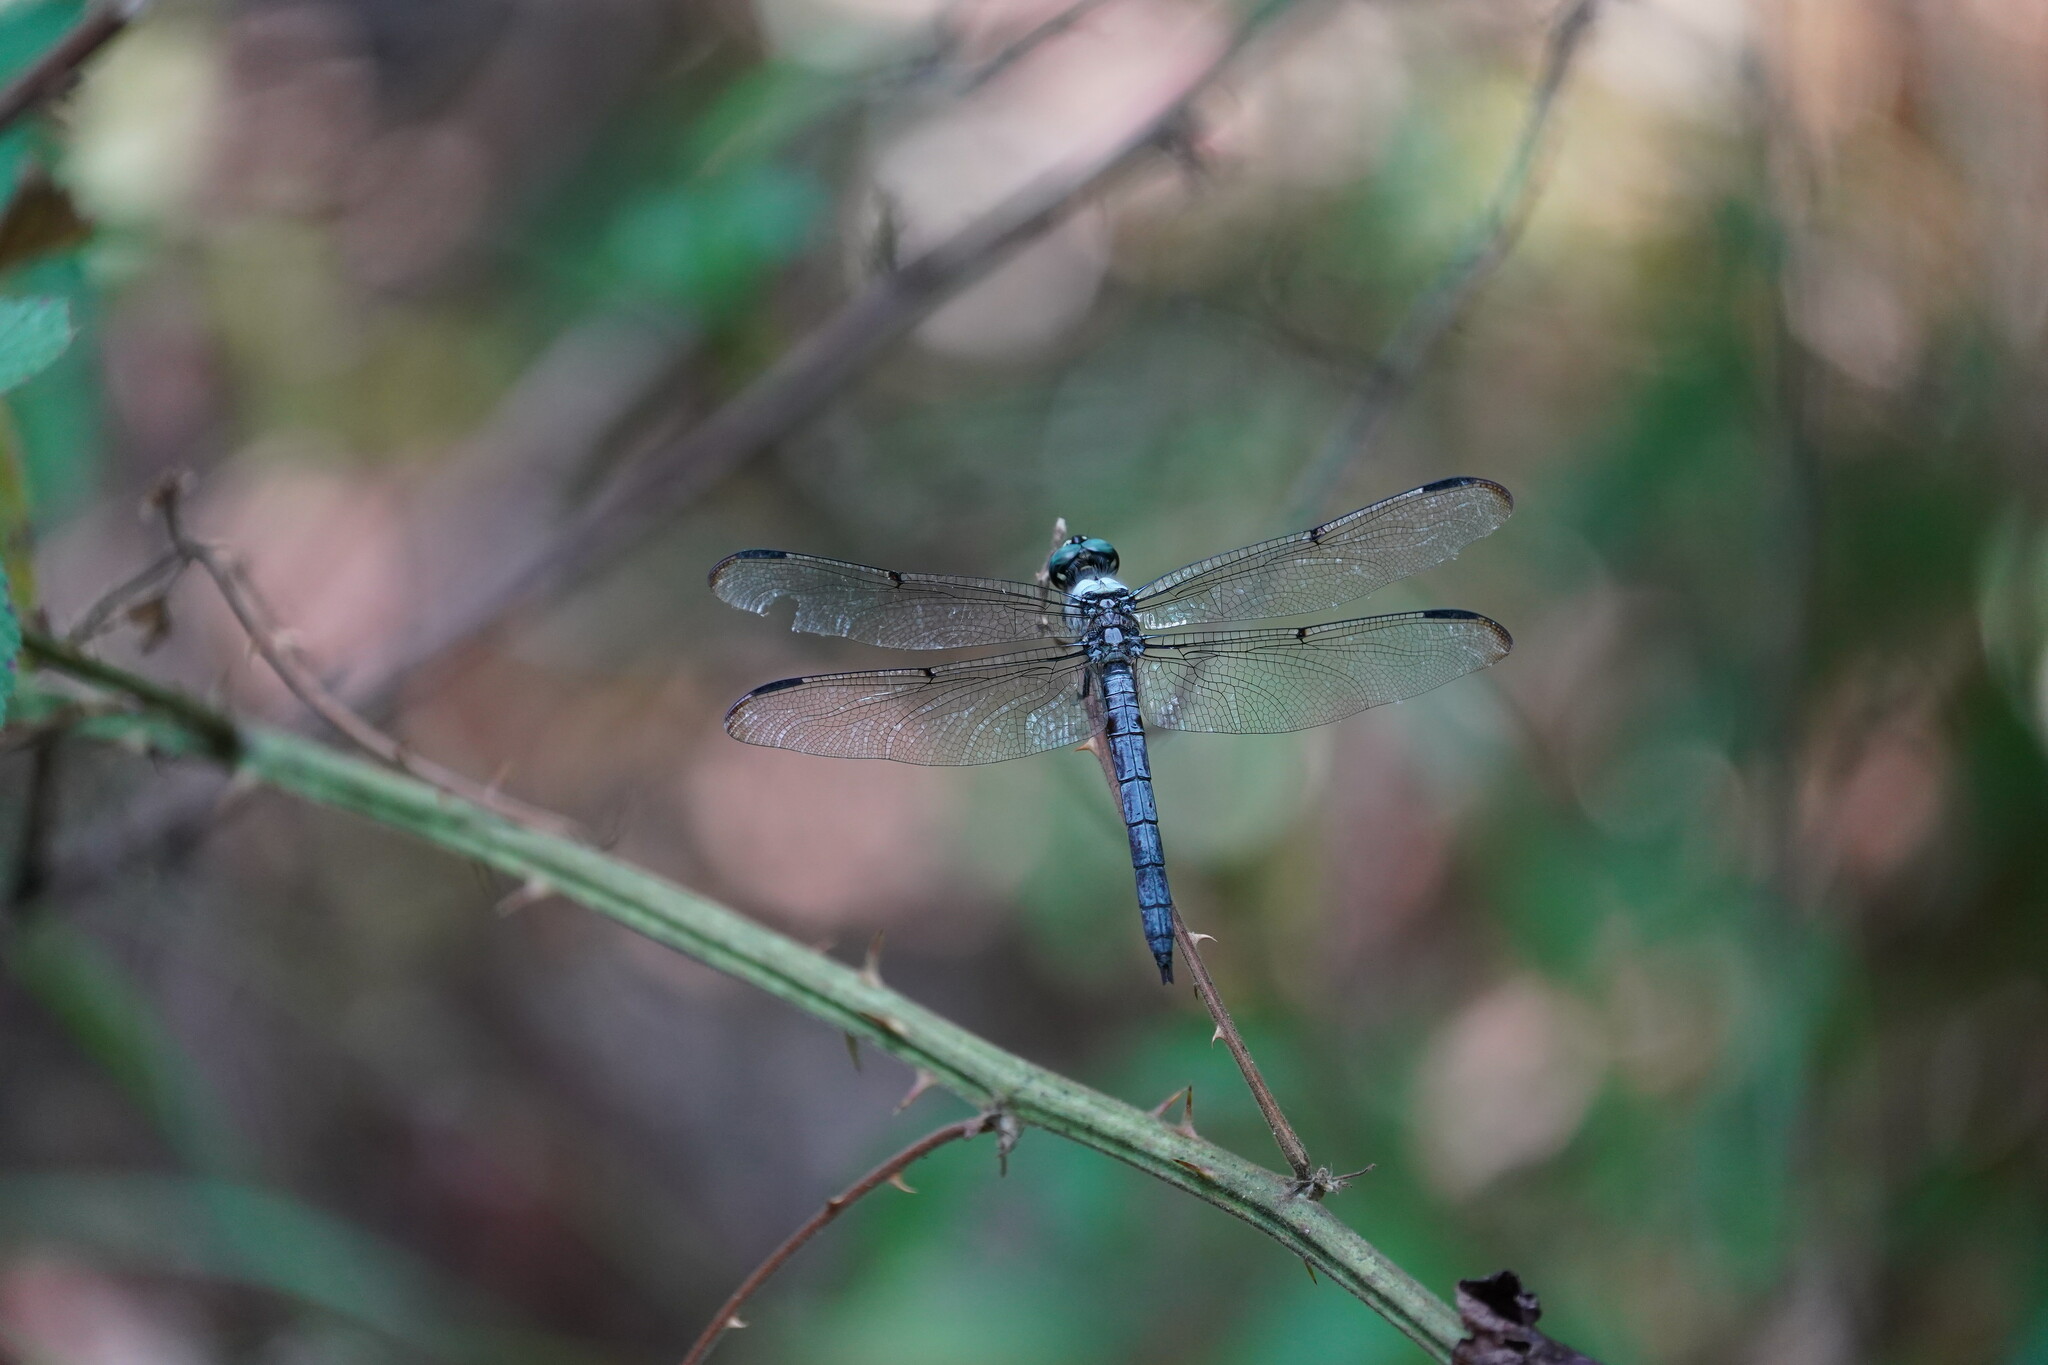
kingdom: Animalia
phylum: Arthropoda
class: Insecta
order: Odonata
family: Libellulidae
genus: Libellula
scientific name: Libellula vibrans
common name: Great blue skimmer
